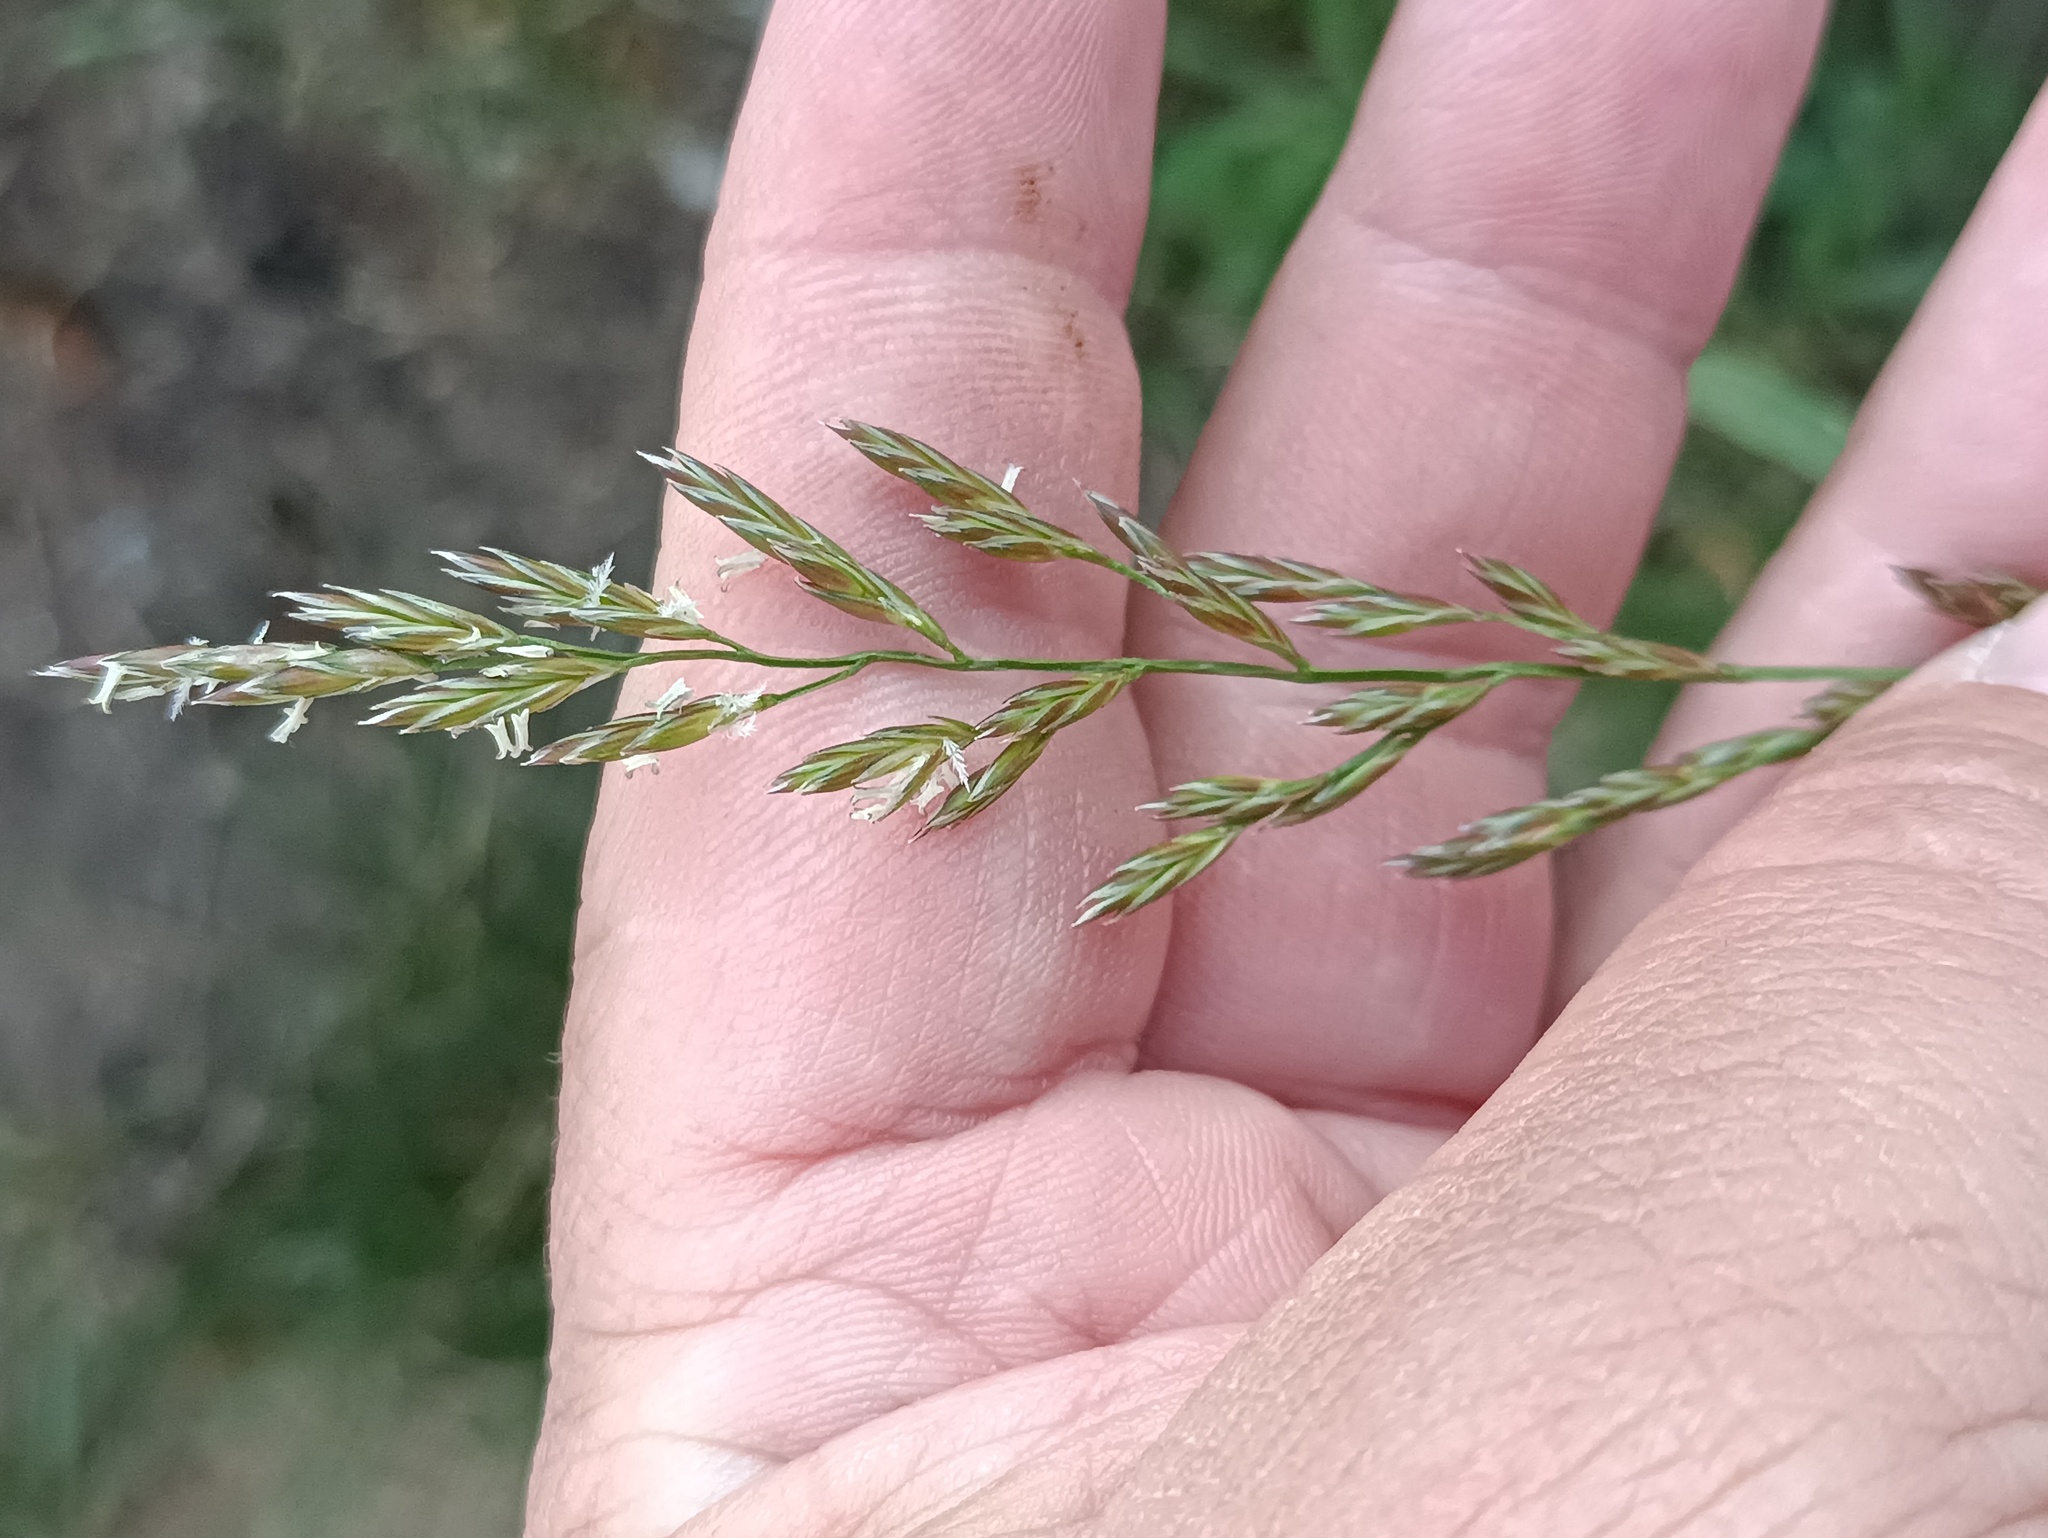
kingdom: Plantae
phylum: Tracheophyta
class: Liliopsida
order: Poales
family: Poaceae
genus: Lolium
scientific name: Lolium pratense
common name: Dover grass
